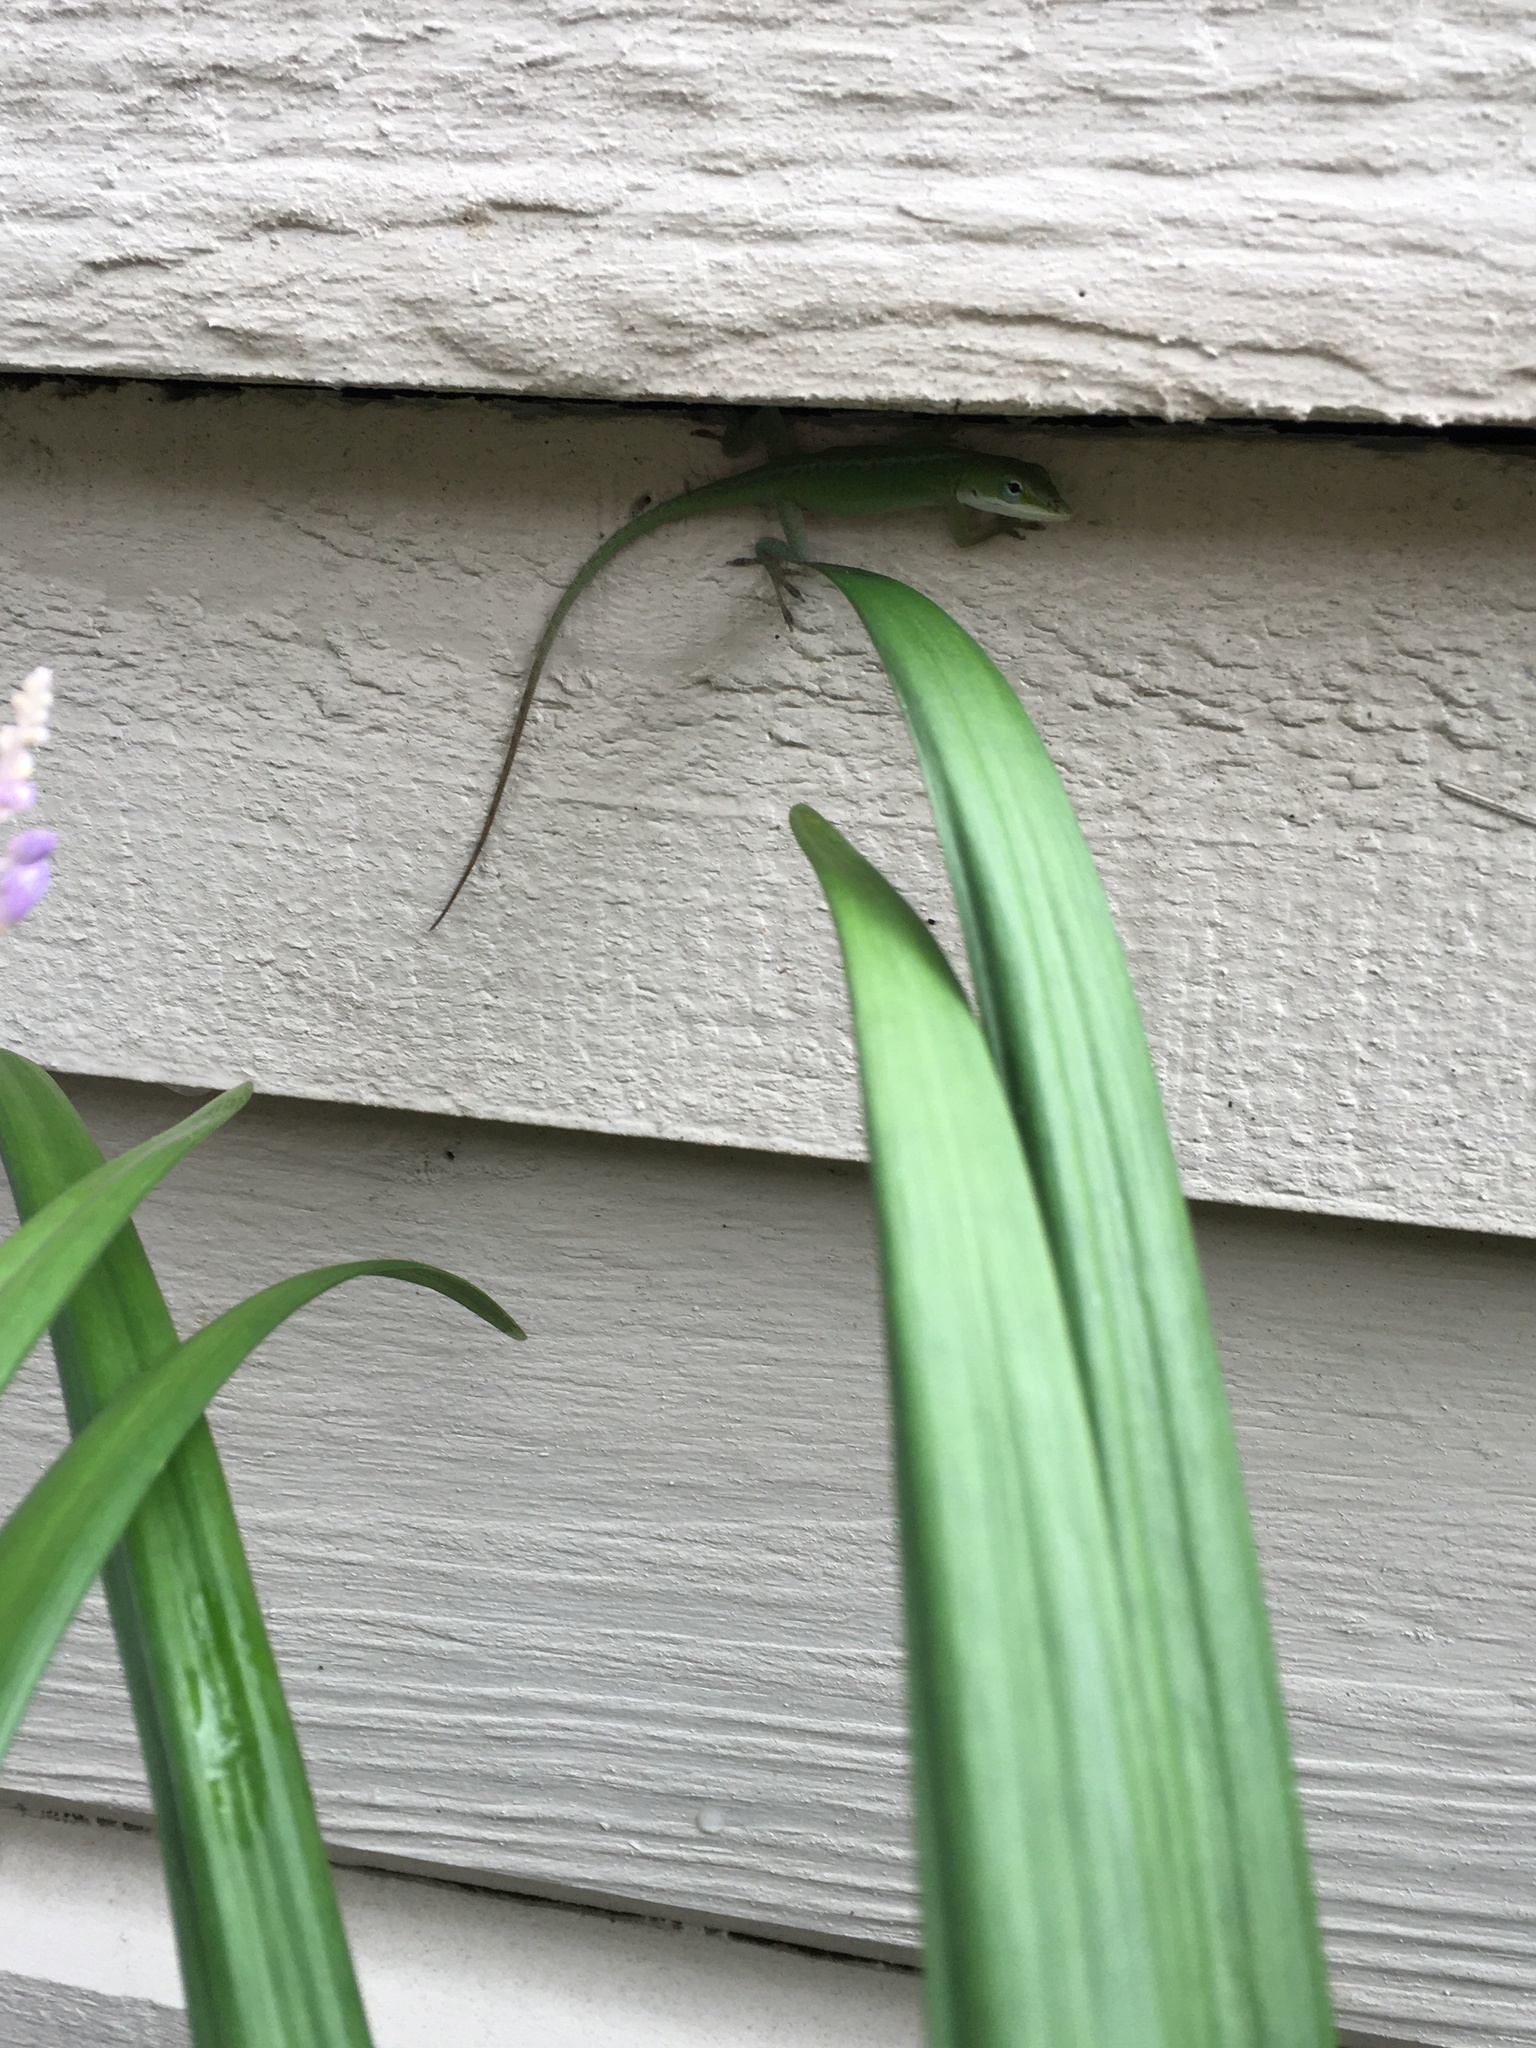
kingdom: Animalia
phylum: Chordata
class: Squamata
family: Dactyloidae
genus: Anolis
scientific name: Anolis carolinensis
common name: Green anole
